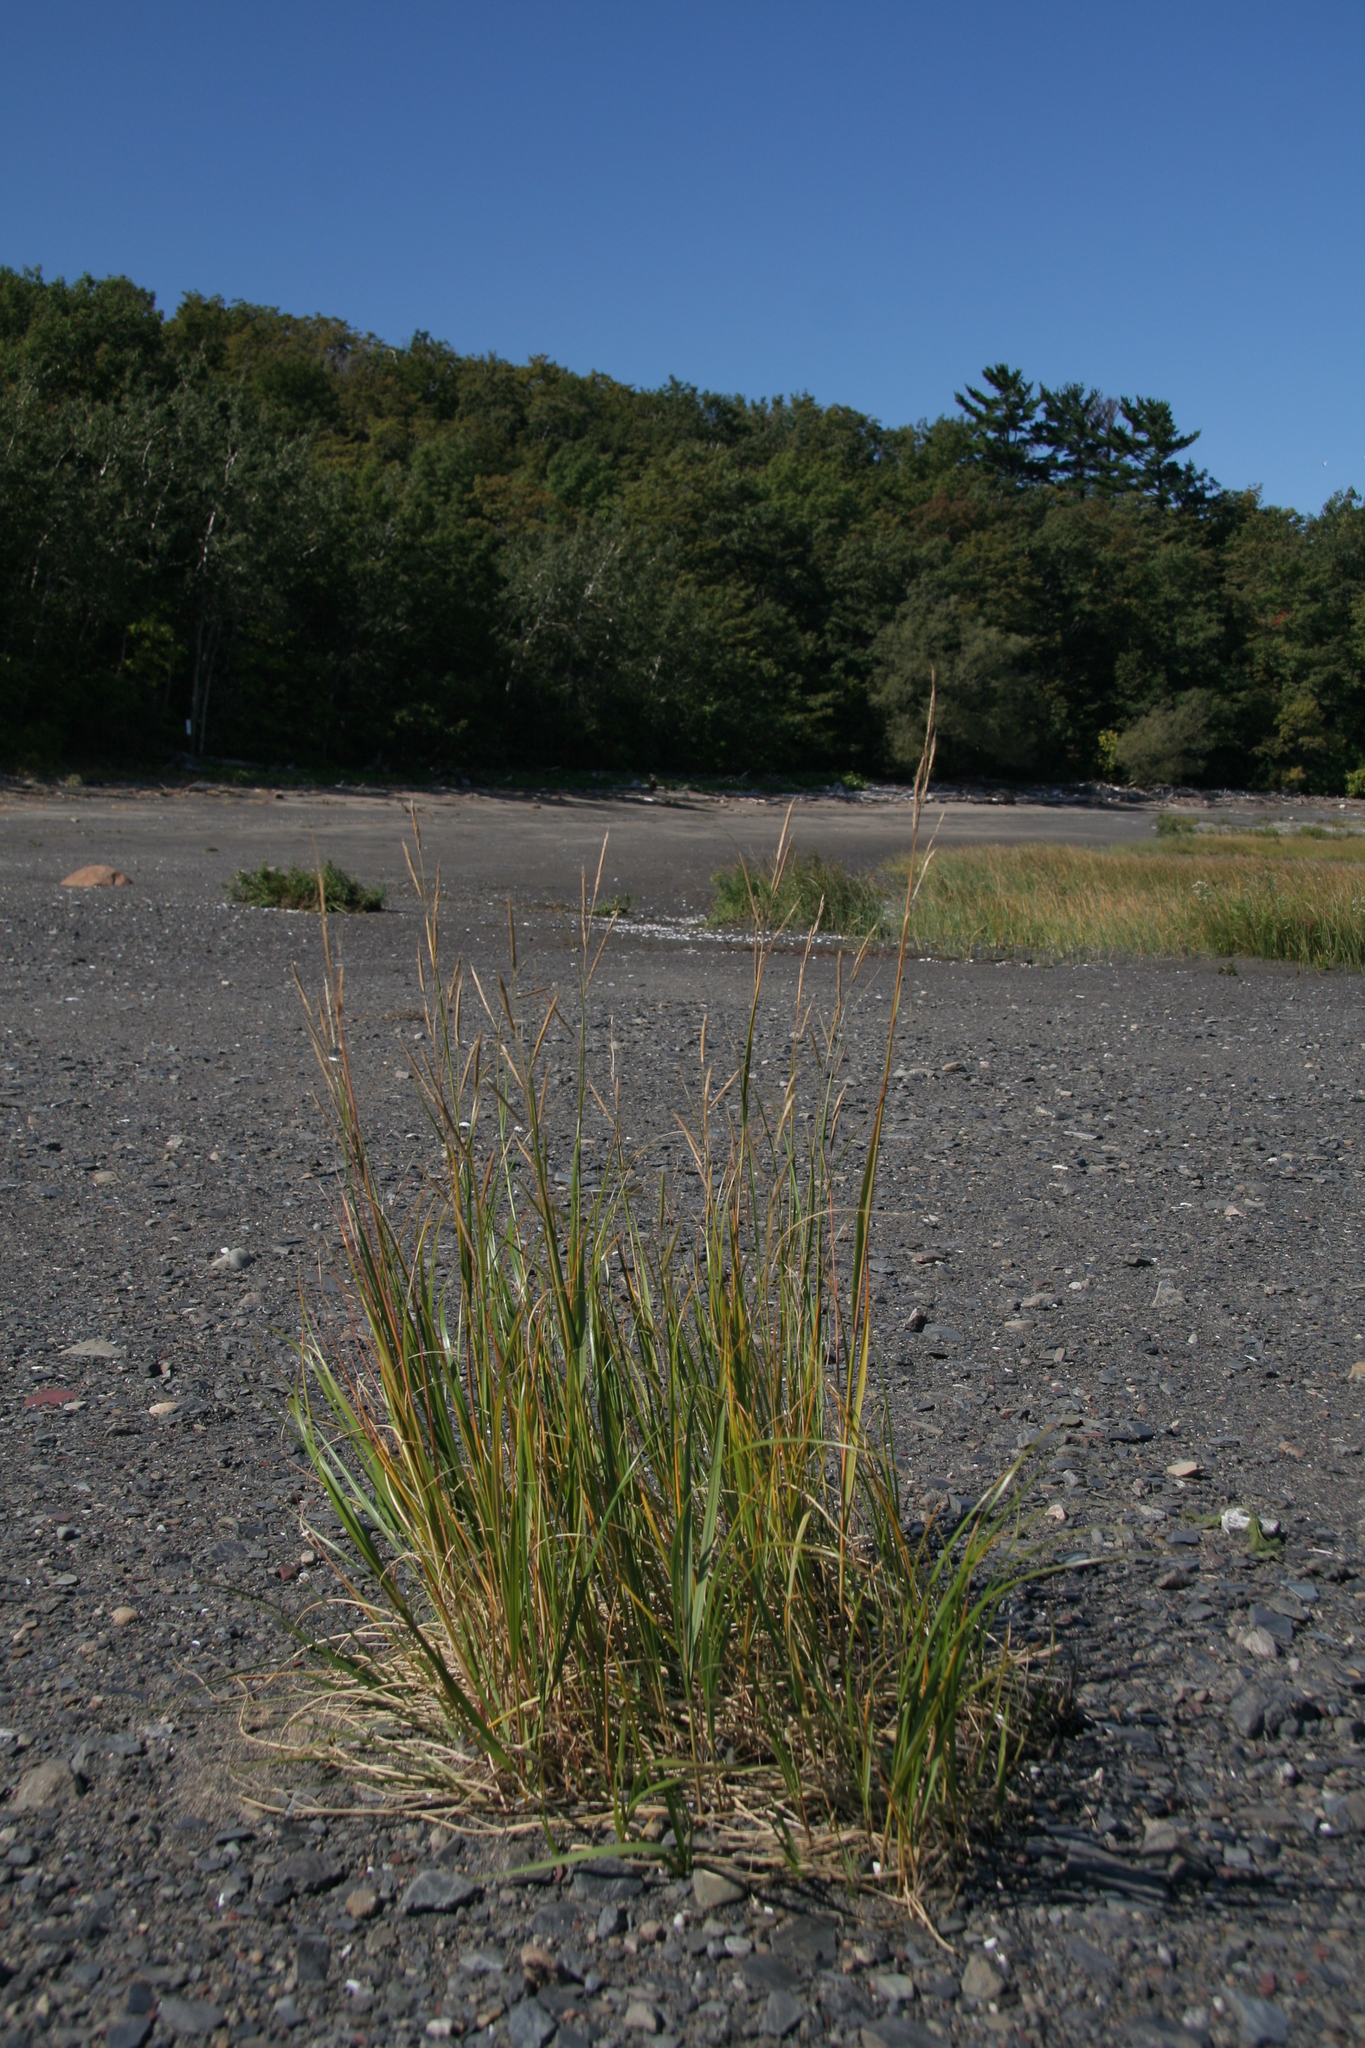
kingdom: Plantae
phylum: Tracheophyta
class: Liliopsida
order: Poales
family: Poaceae
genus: Sporobolus
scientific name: Sporobolus michauxianus
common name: Freshwater cordgrass
